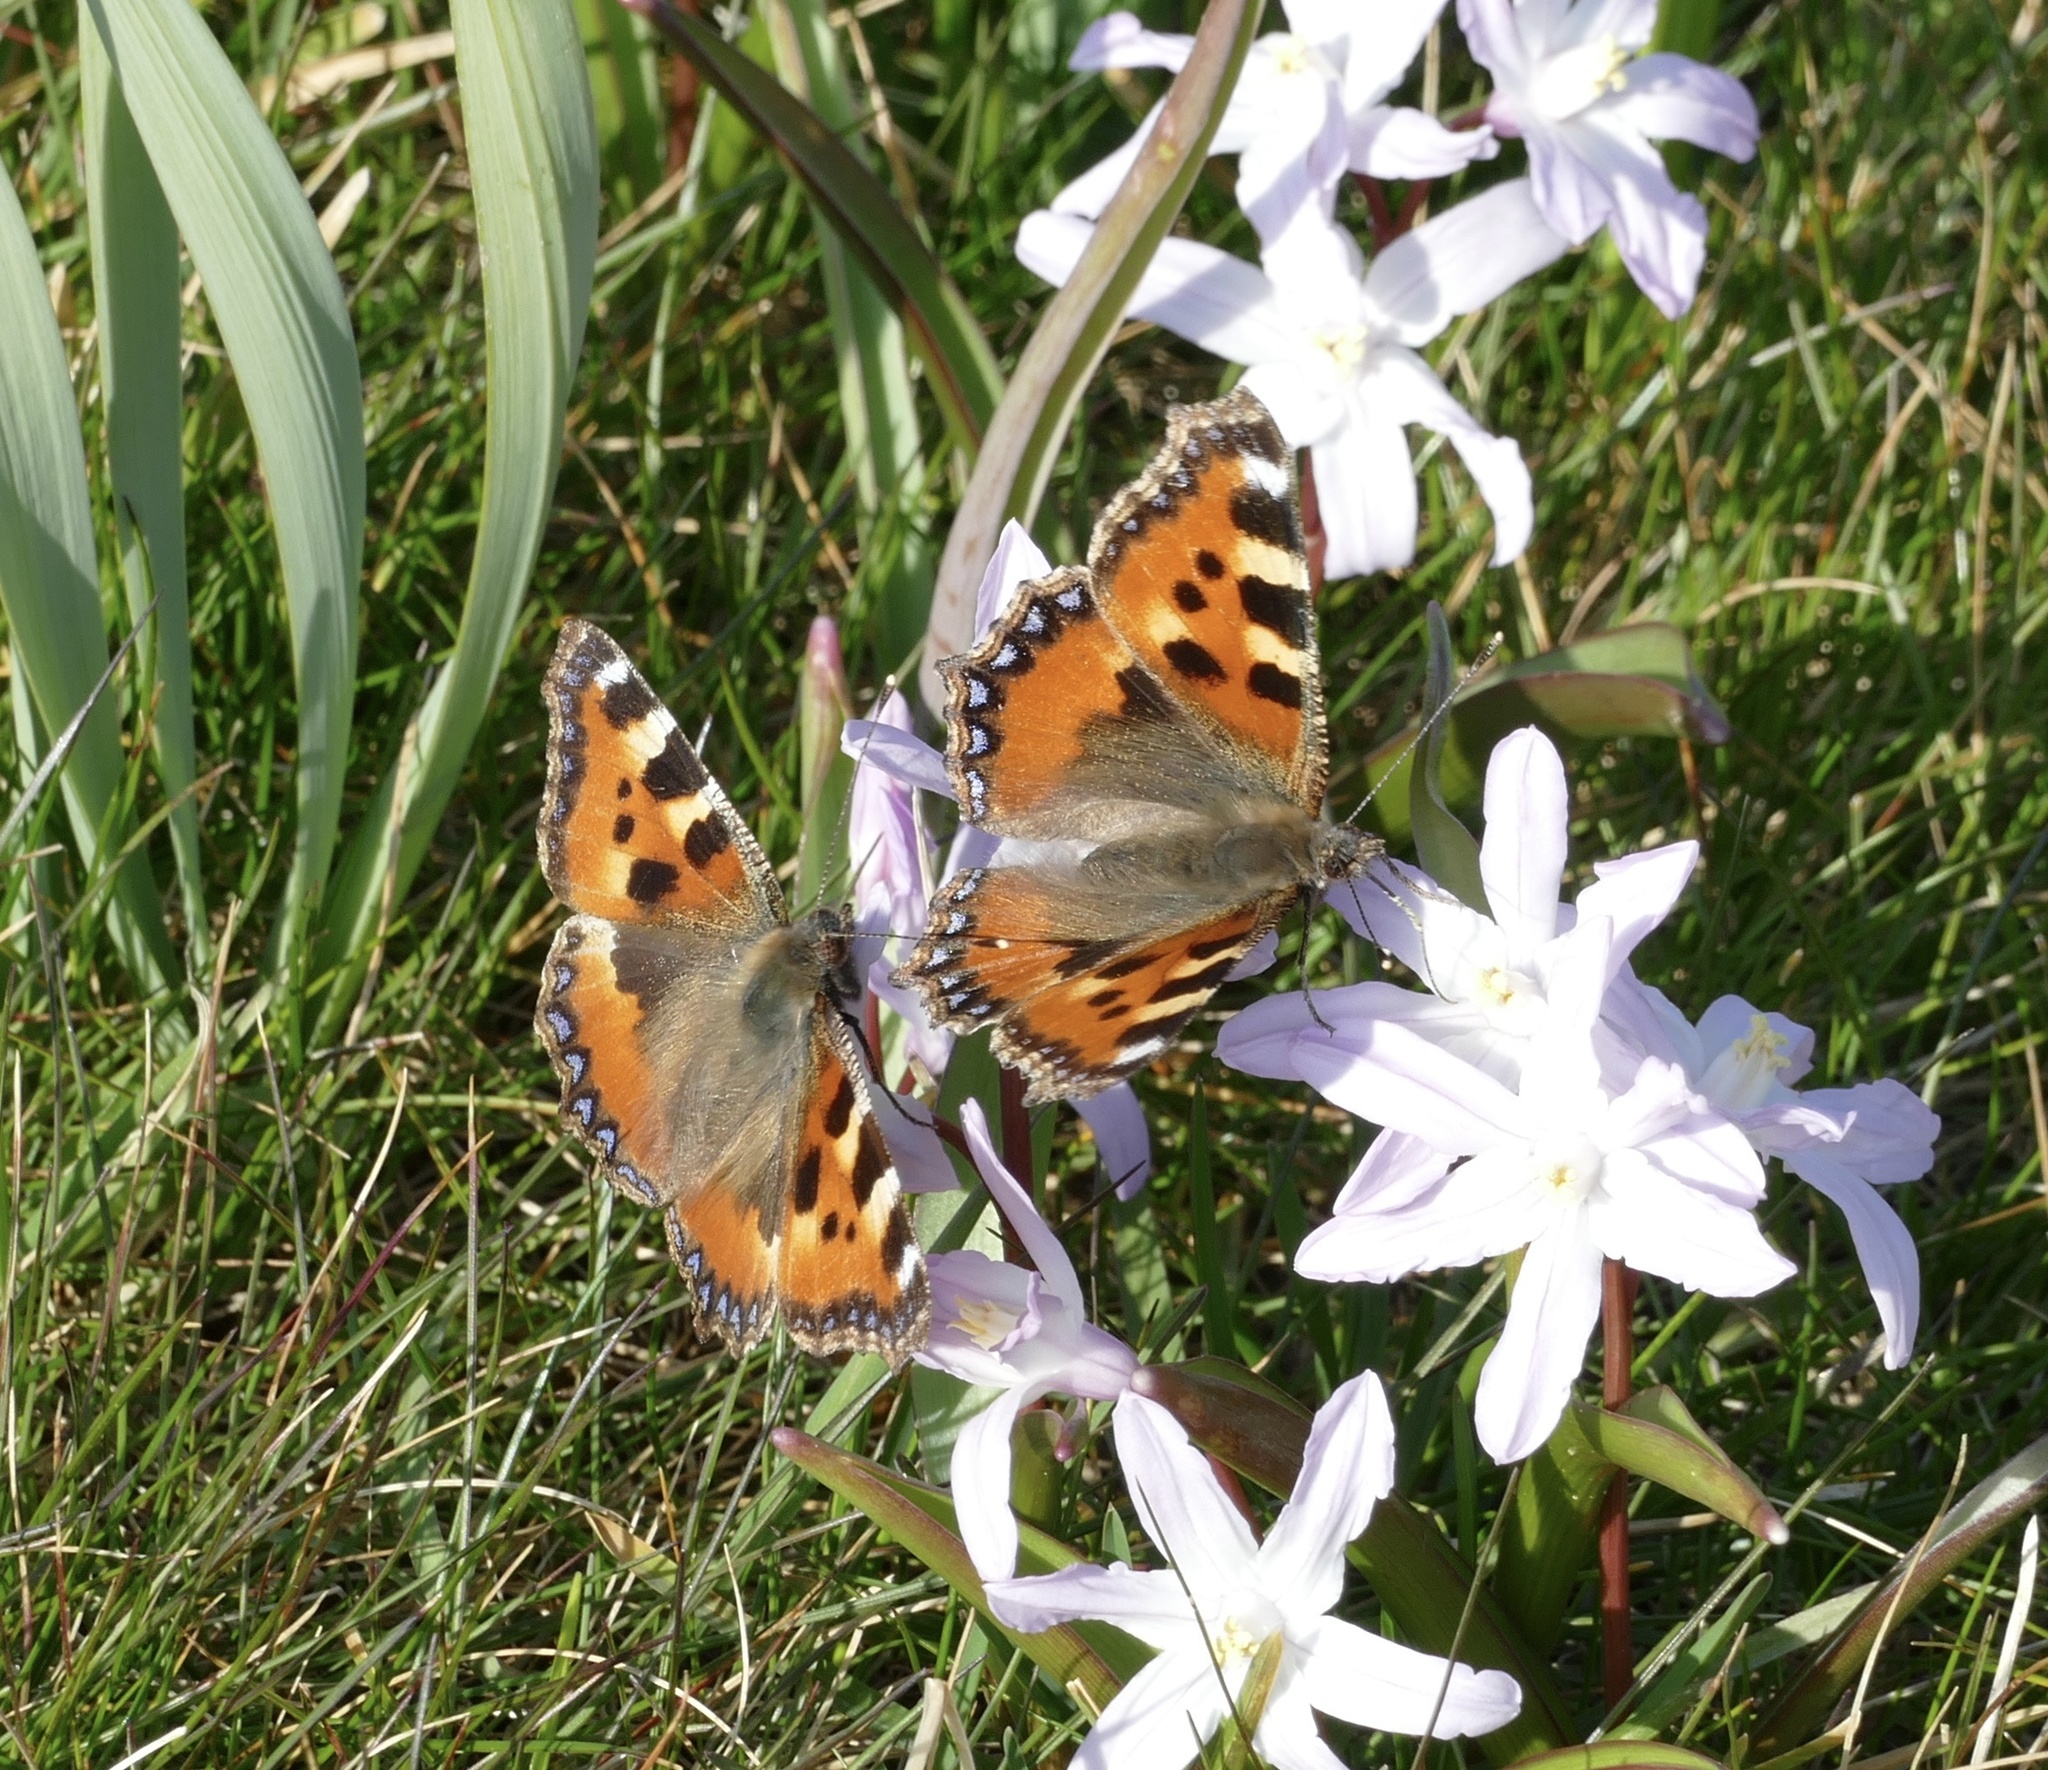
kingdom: Animalia
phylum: Arthropoda
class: Insecta
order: Lepidoptera
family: Nymphalidae
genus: Aglais
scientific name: Aglais urticae
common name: Small tortoiseshell
